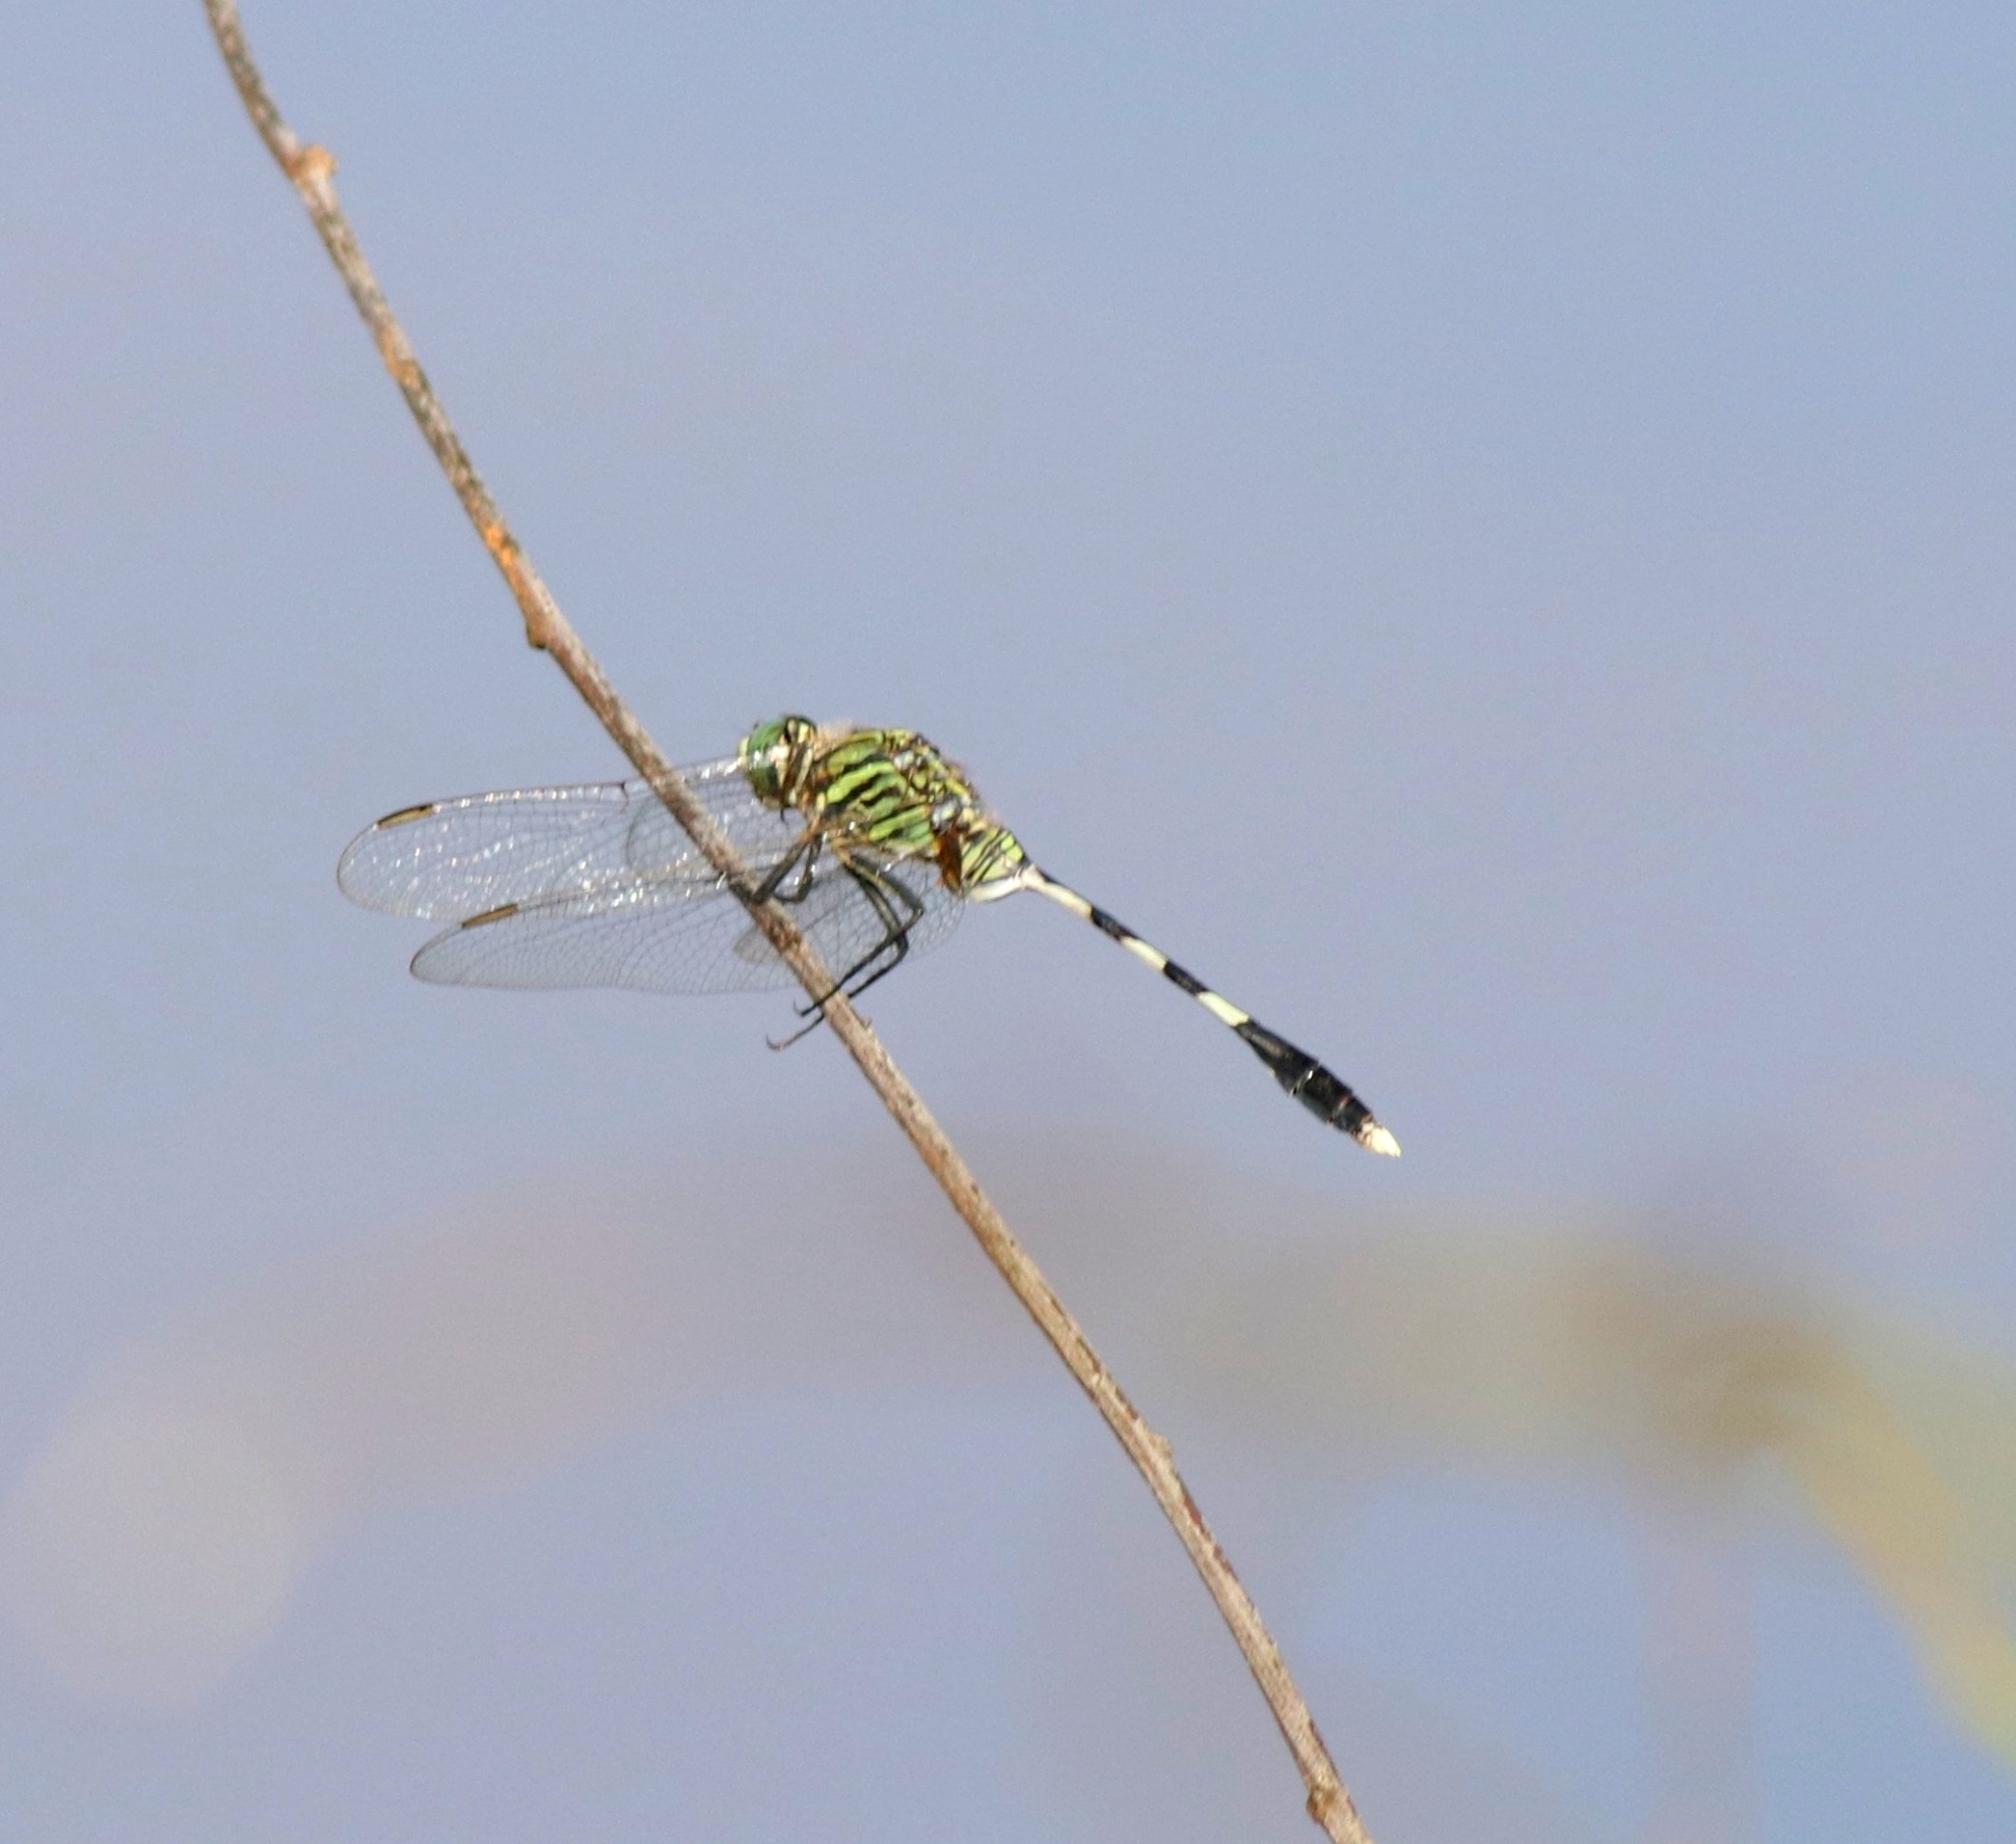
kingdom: Animalia
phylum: Arthropoda
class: Insecta
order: Odonata
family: Libellulidae
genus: Orthetrum
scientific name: Orthetrum sabina
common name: Slender skimmer
